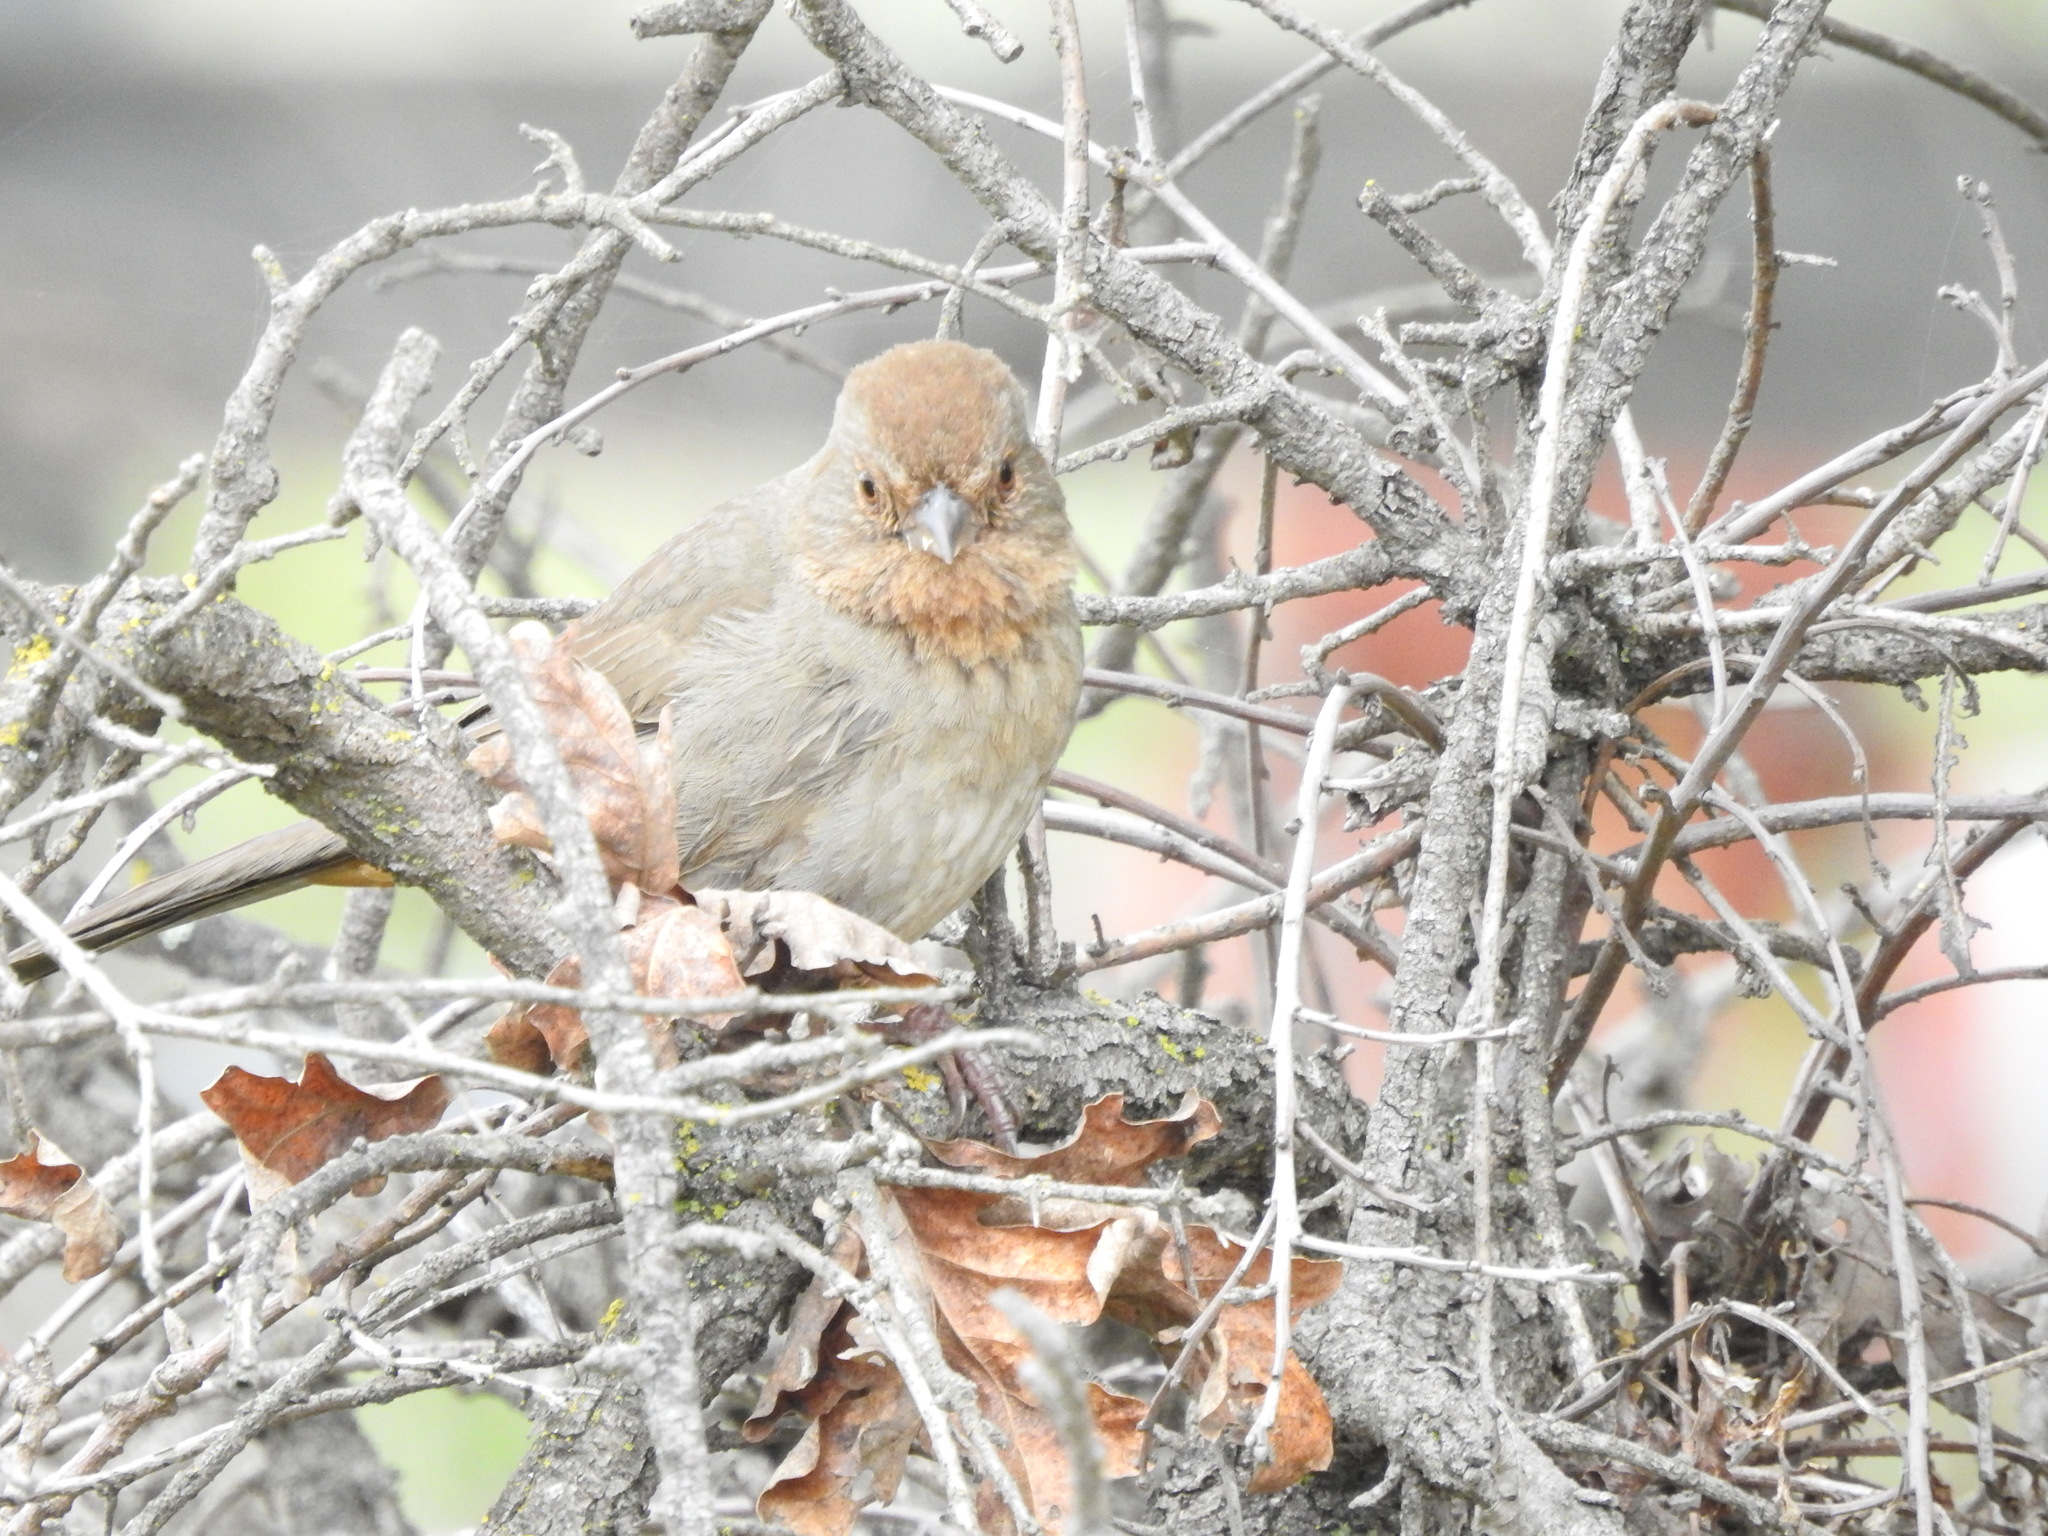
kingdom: Animalia
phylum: Chordata
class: Aves
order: Passeriformes
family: Passerellidae
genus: Melozone
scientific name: Melozone crissalis
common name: California towhee
